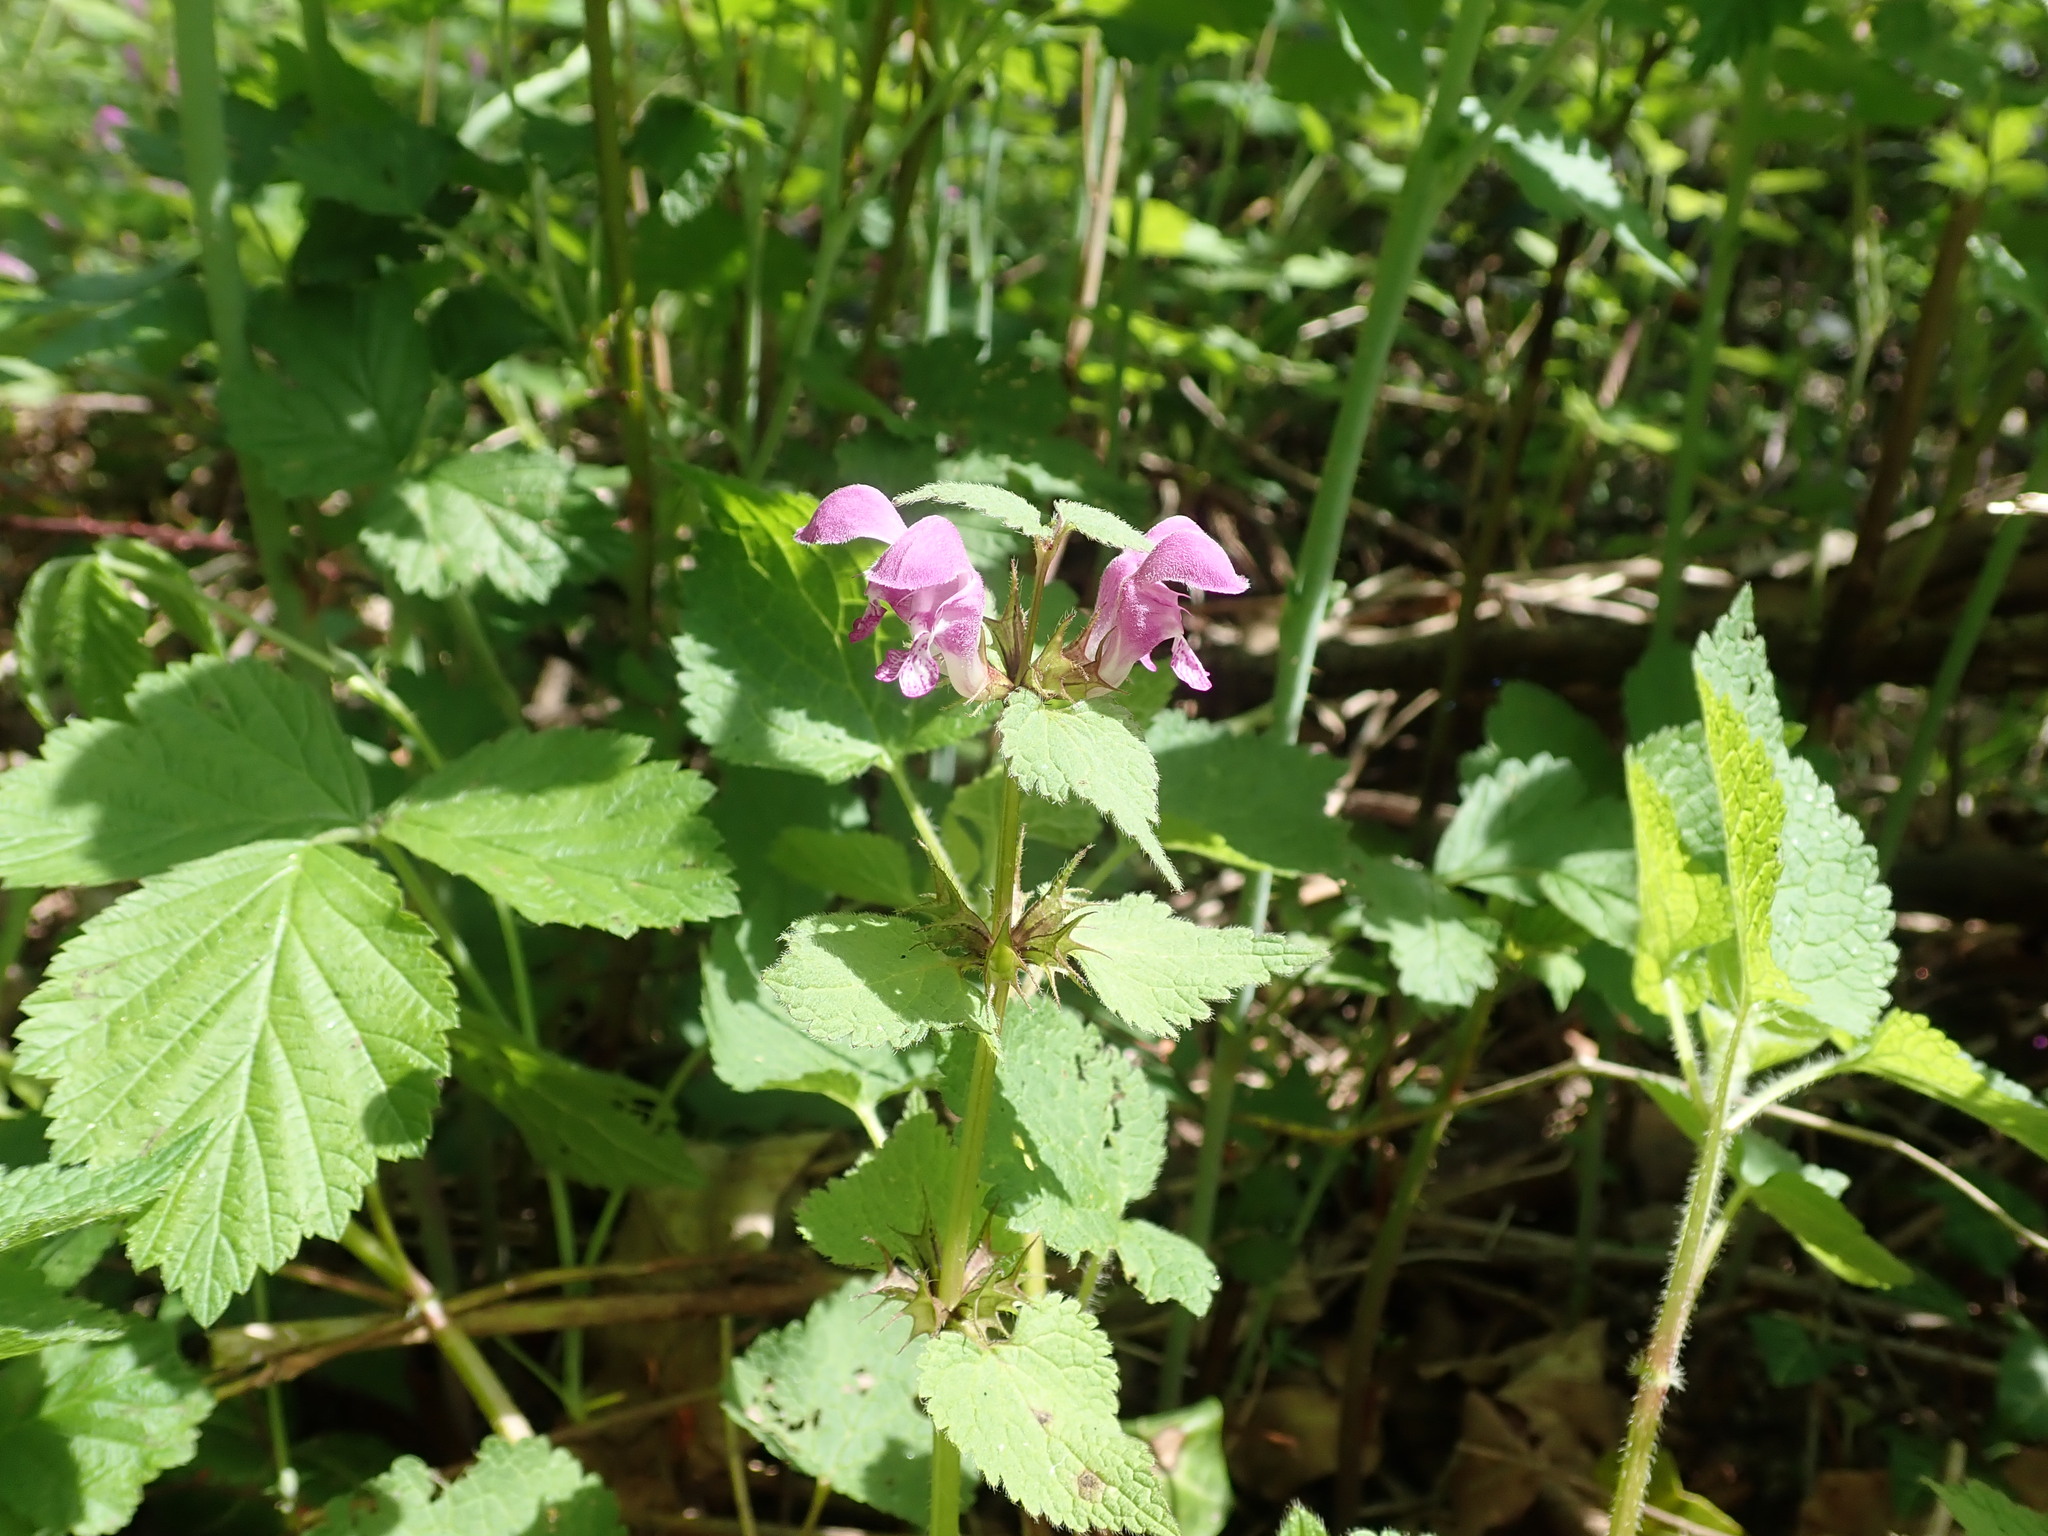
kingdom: Plantae
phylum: Tracheophyta
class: Magnoliopsida
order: Lamiales
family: Lamiaceae
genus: Lamium
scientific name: Lamium maculatum
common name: Spotted dead-nettle
